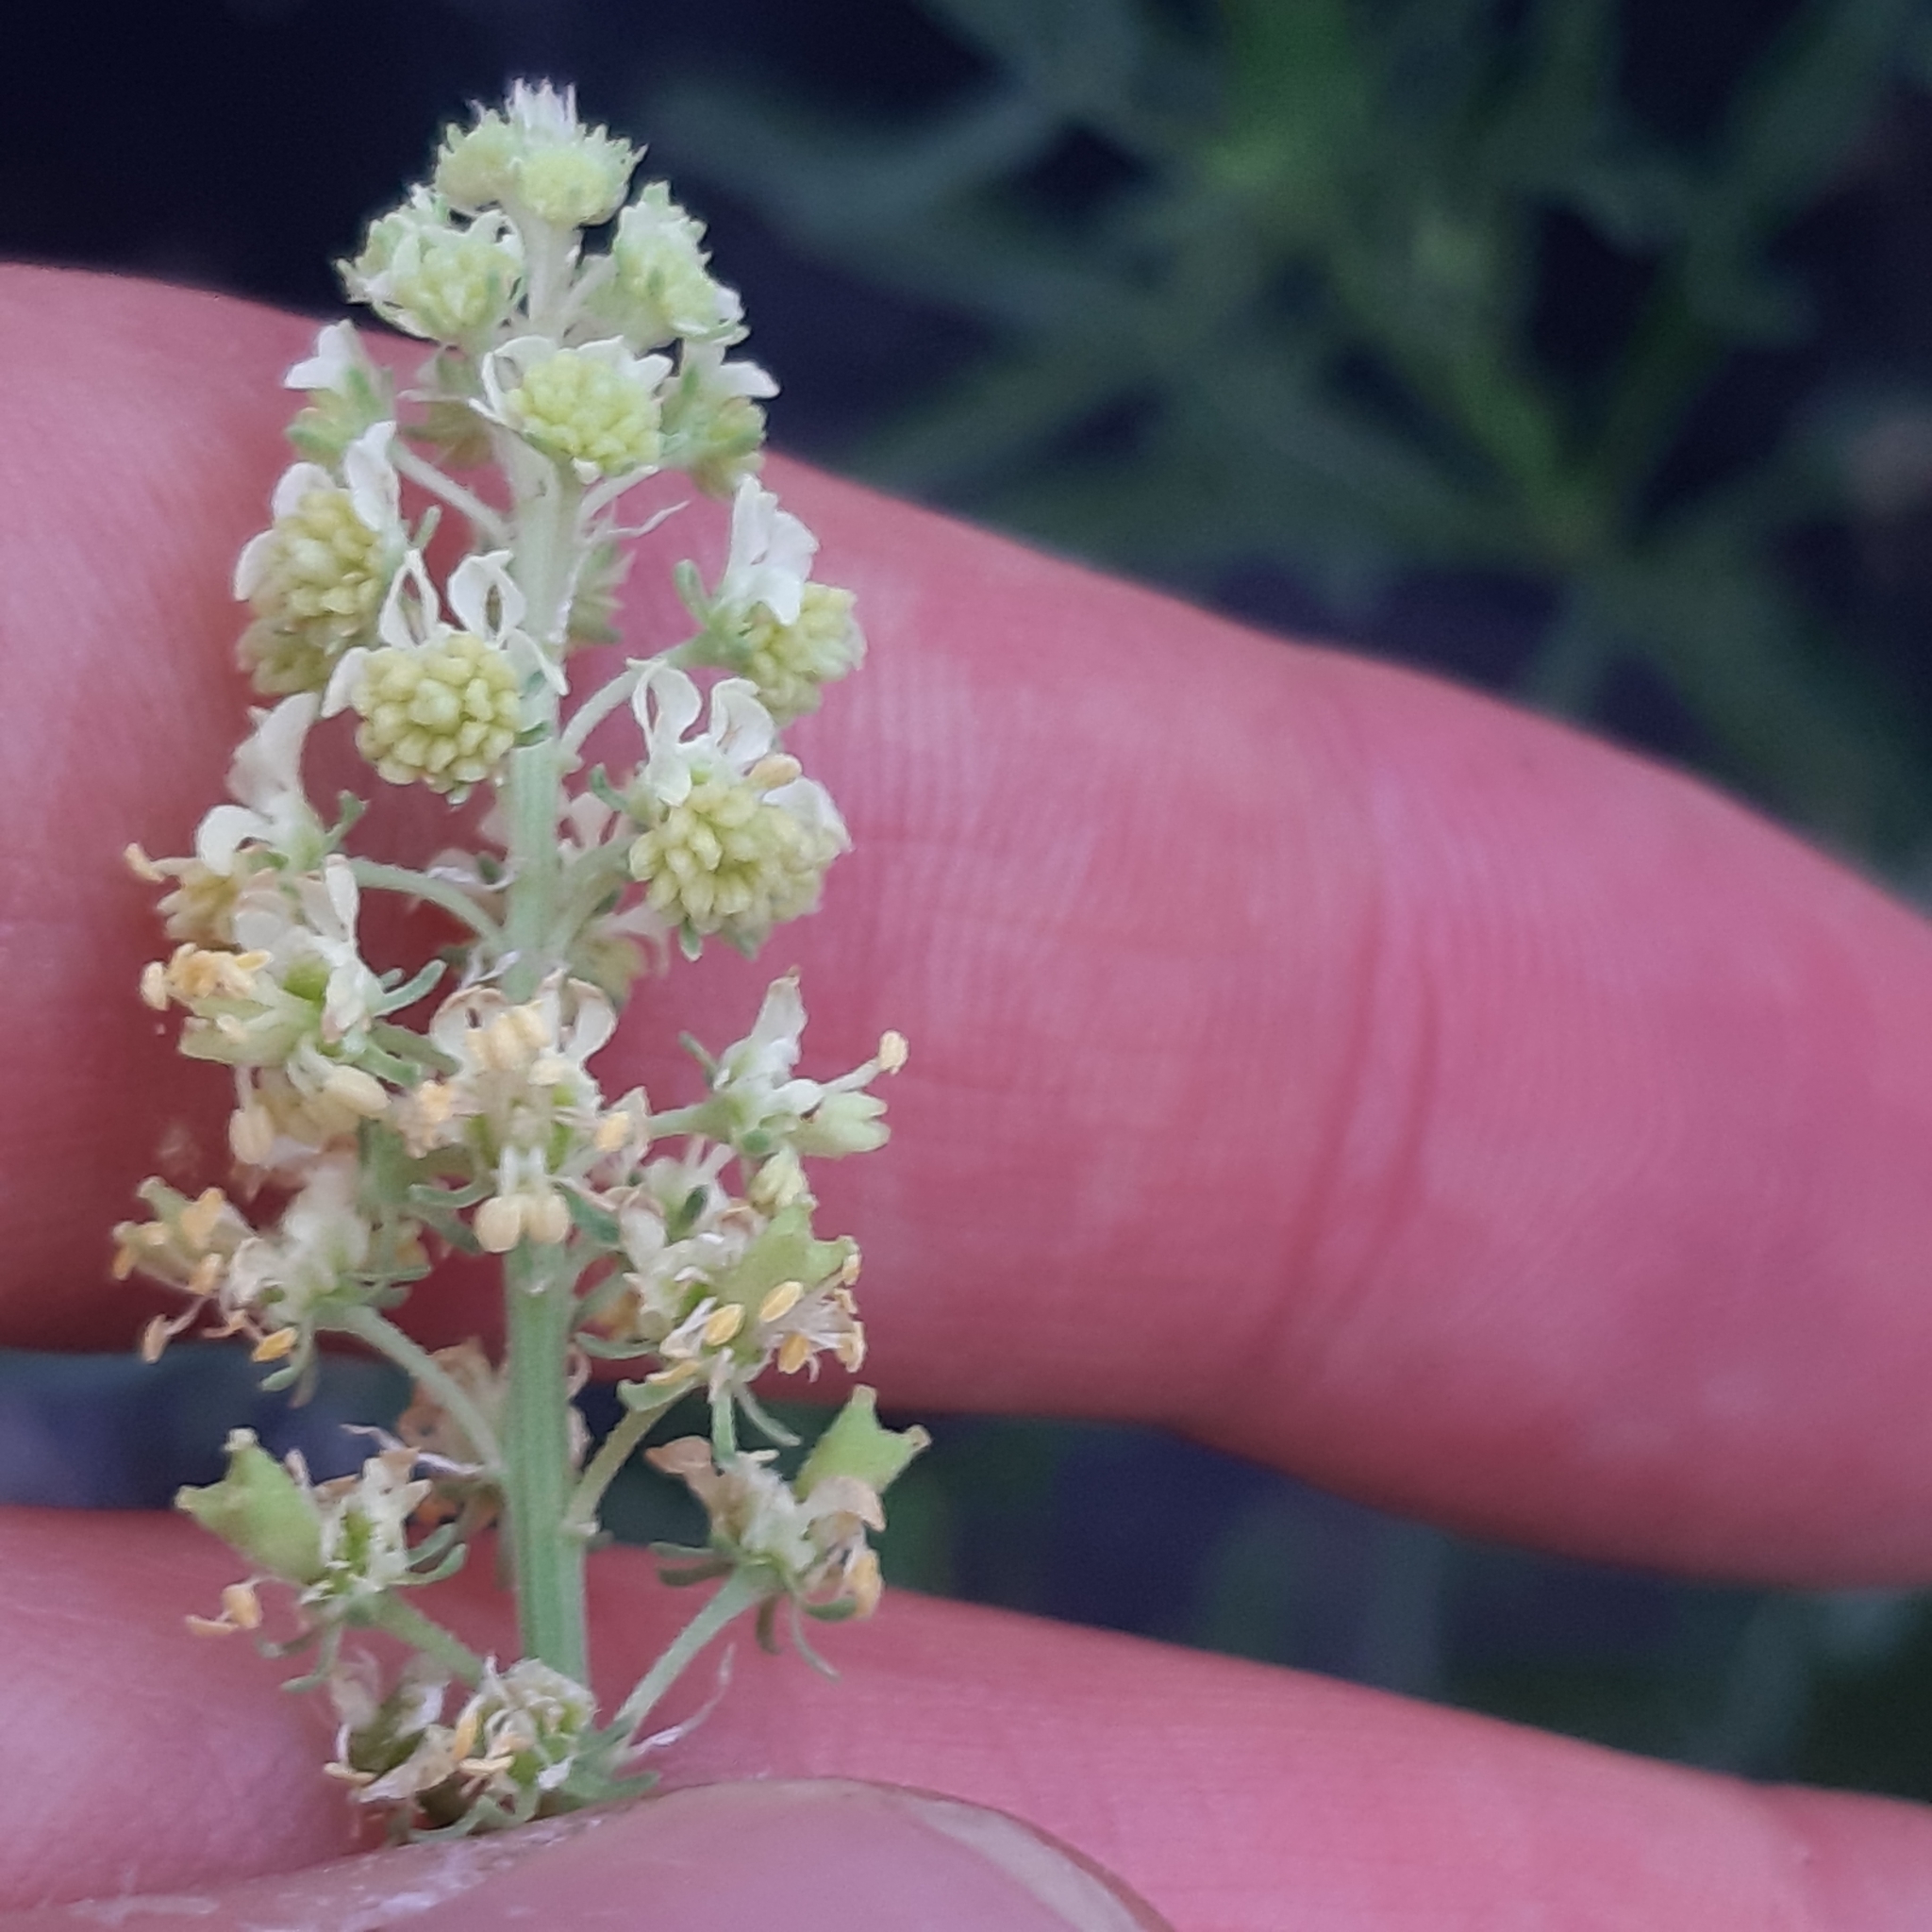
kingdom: Plantae
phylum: Tracheophyta
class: Magnoliopsida
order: Brassicales
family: Resedaceae
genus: Reseda
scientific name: Reseda lutea
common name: Wild mignonette
